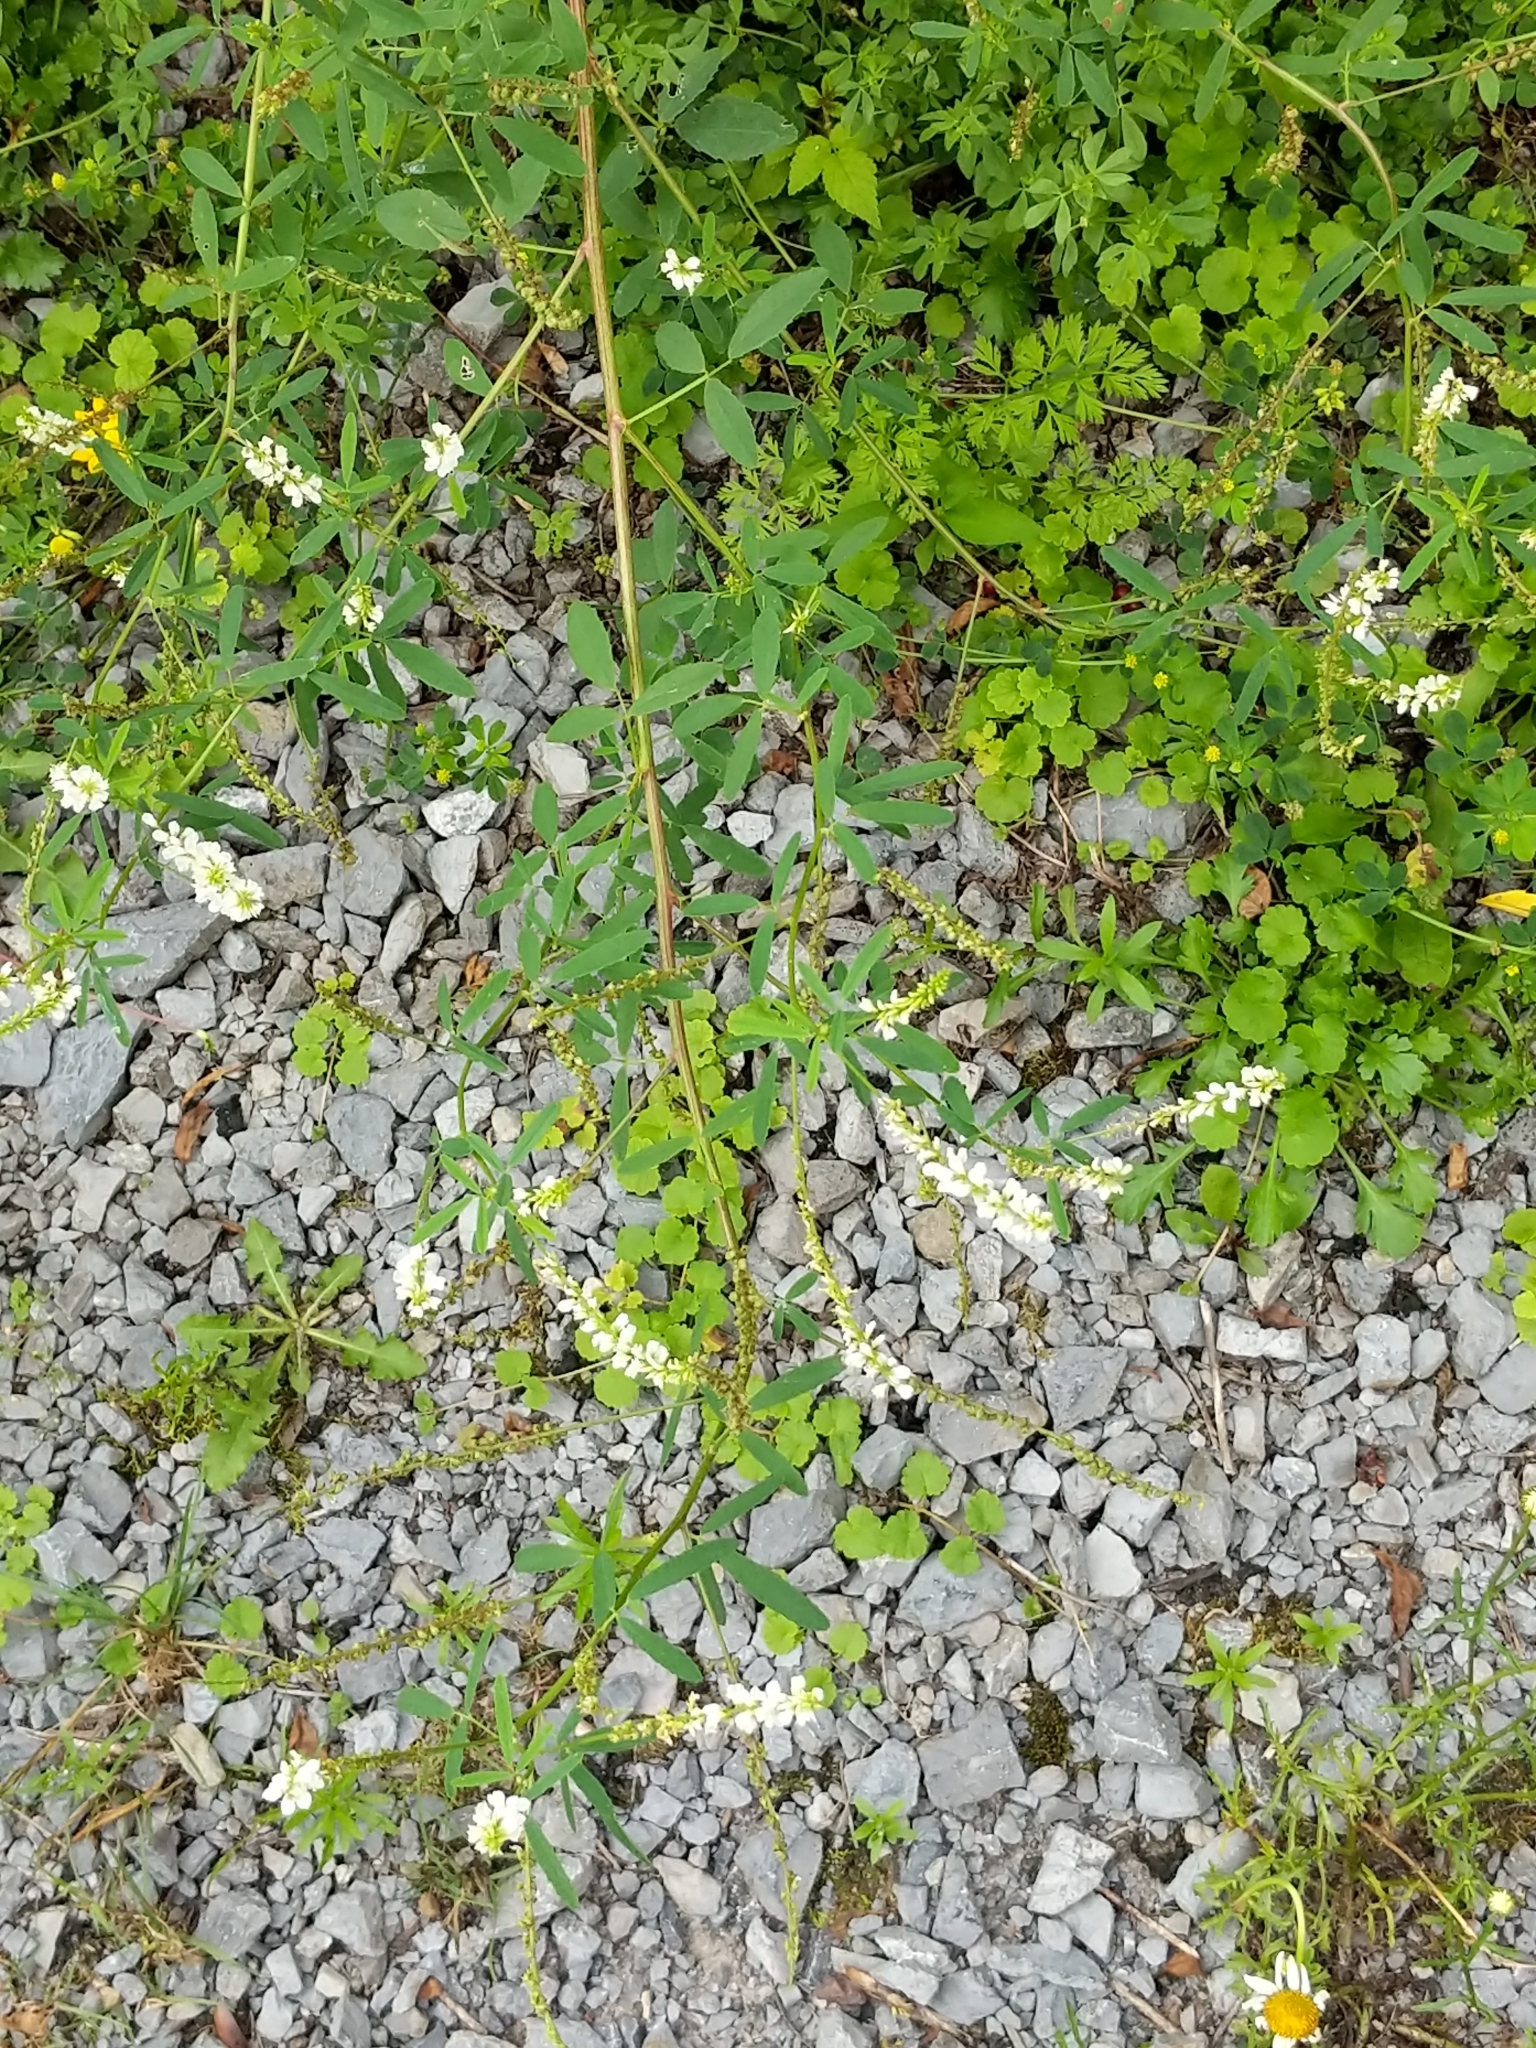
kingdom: Plantae
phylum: Tracheophyta
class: Magnoliopsida
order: Fabales
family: Fabaceae
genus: Melilotus
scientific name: Melilotus albus
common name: White melilot
